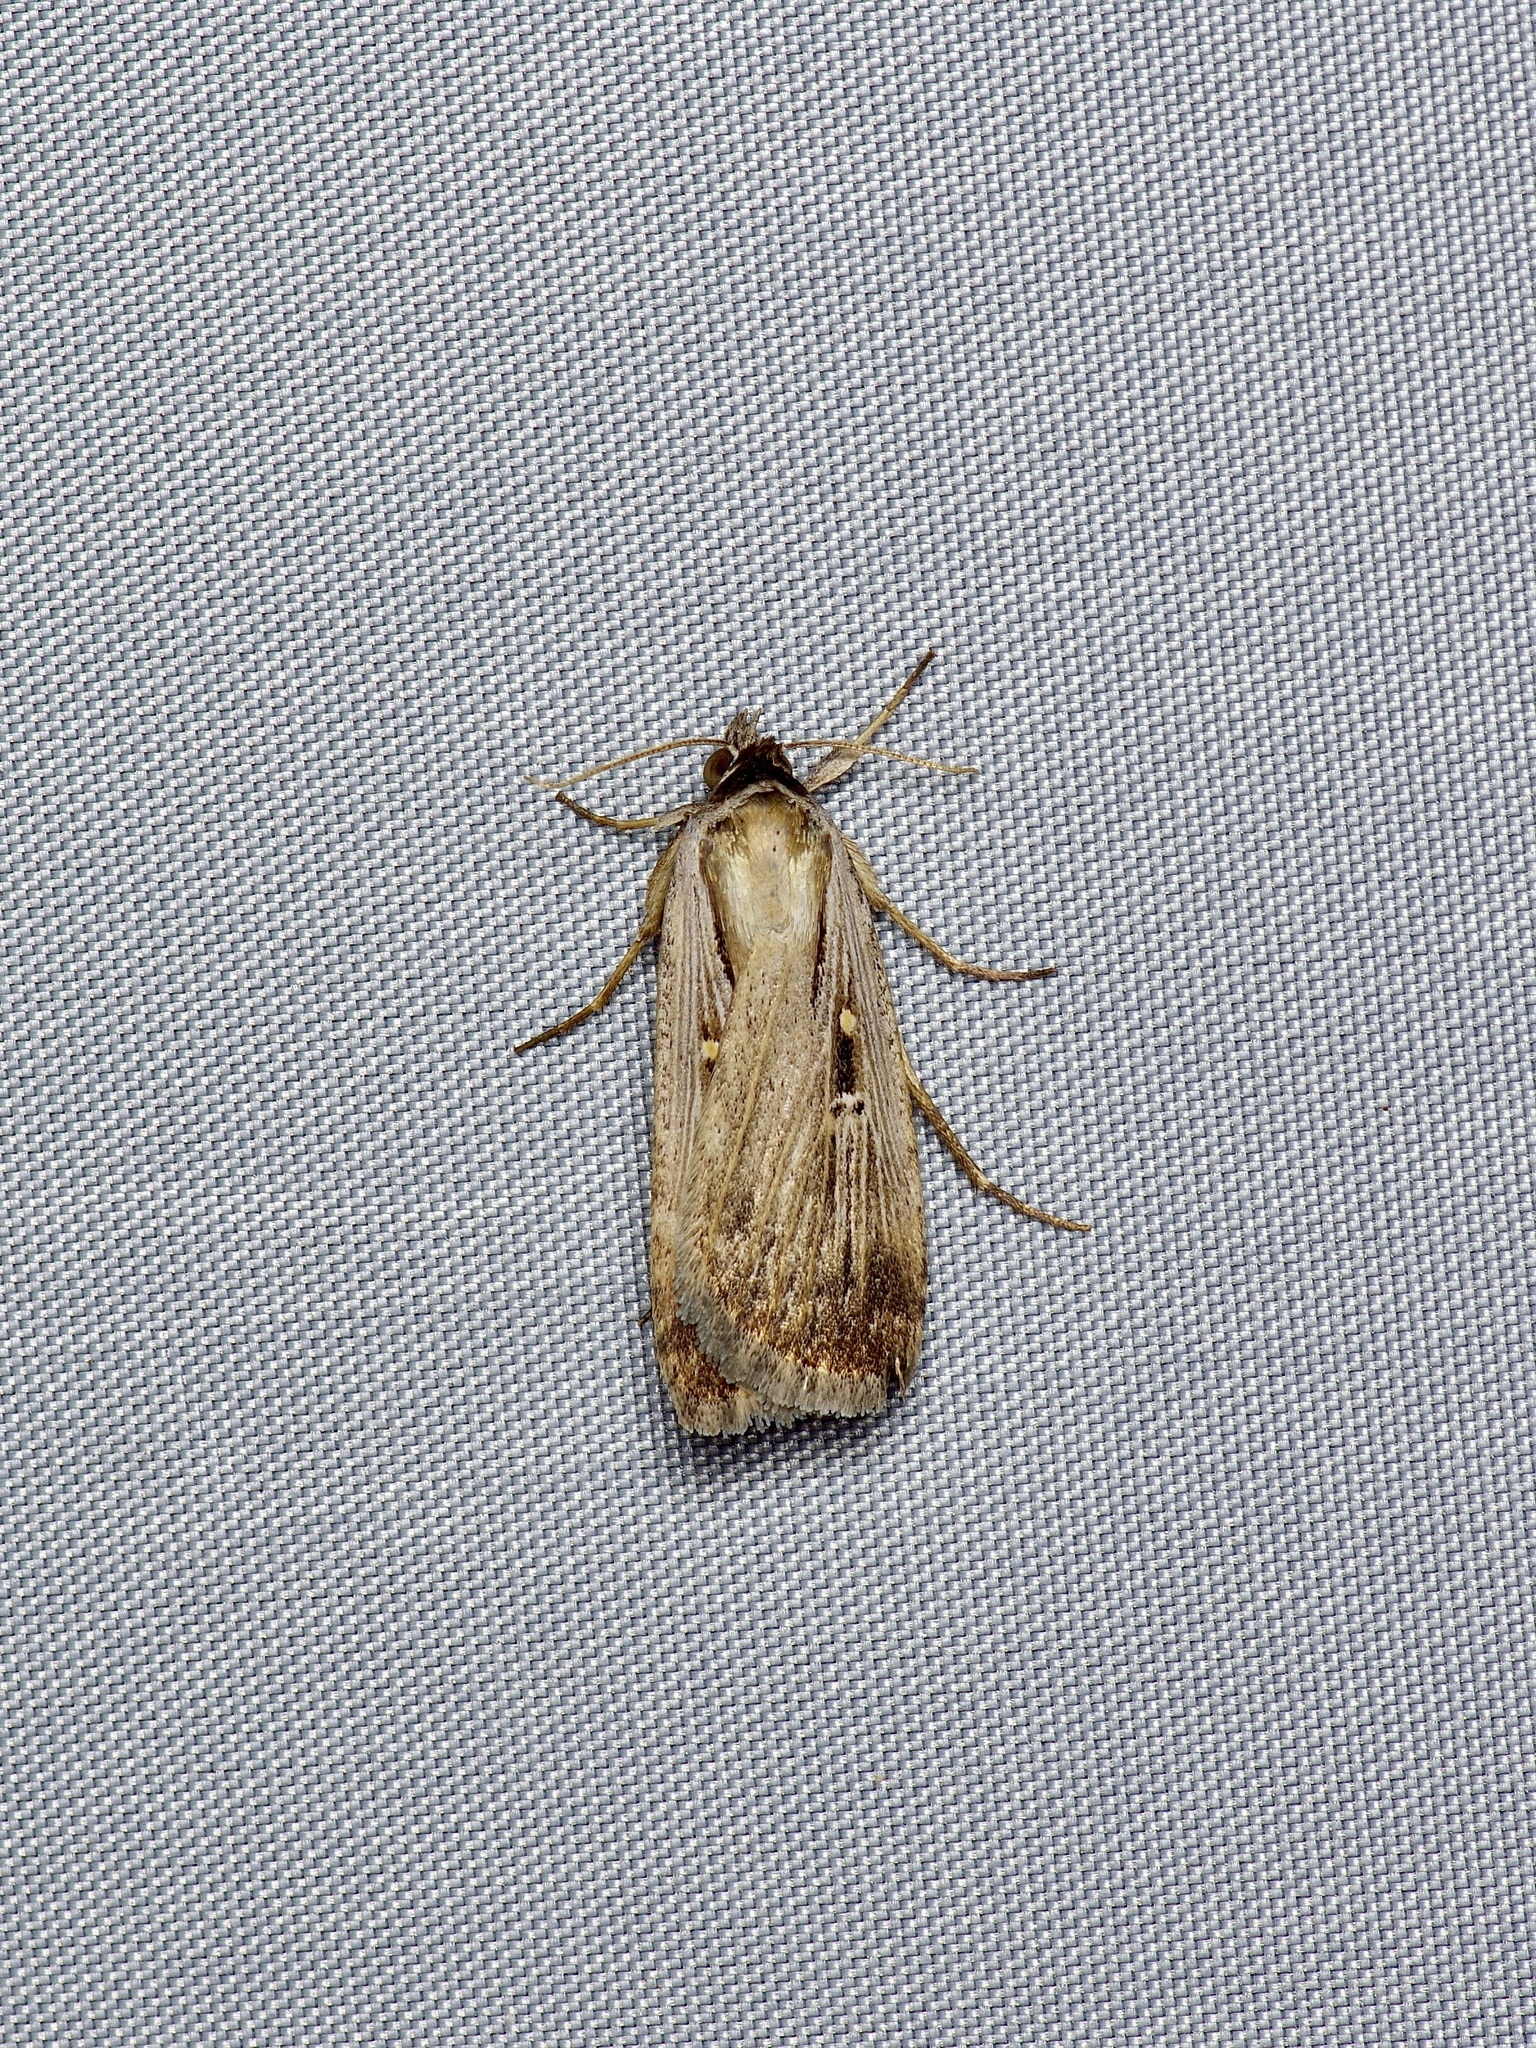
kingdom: Animalia
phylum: Arthropoda
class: Insecta
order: Lepidoptera
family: Noctuidae
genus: Tathorhynchus
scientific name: Tathorhynchus exsiccata
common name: Levant blackneck moth
